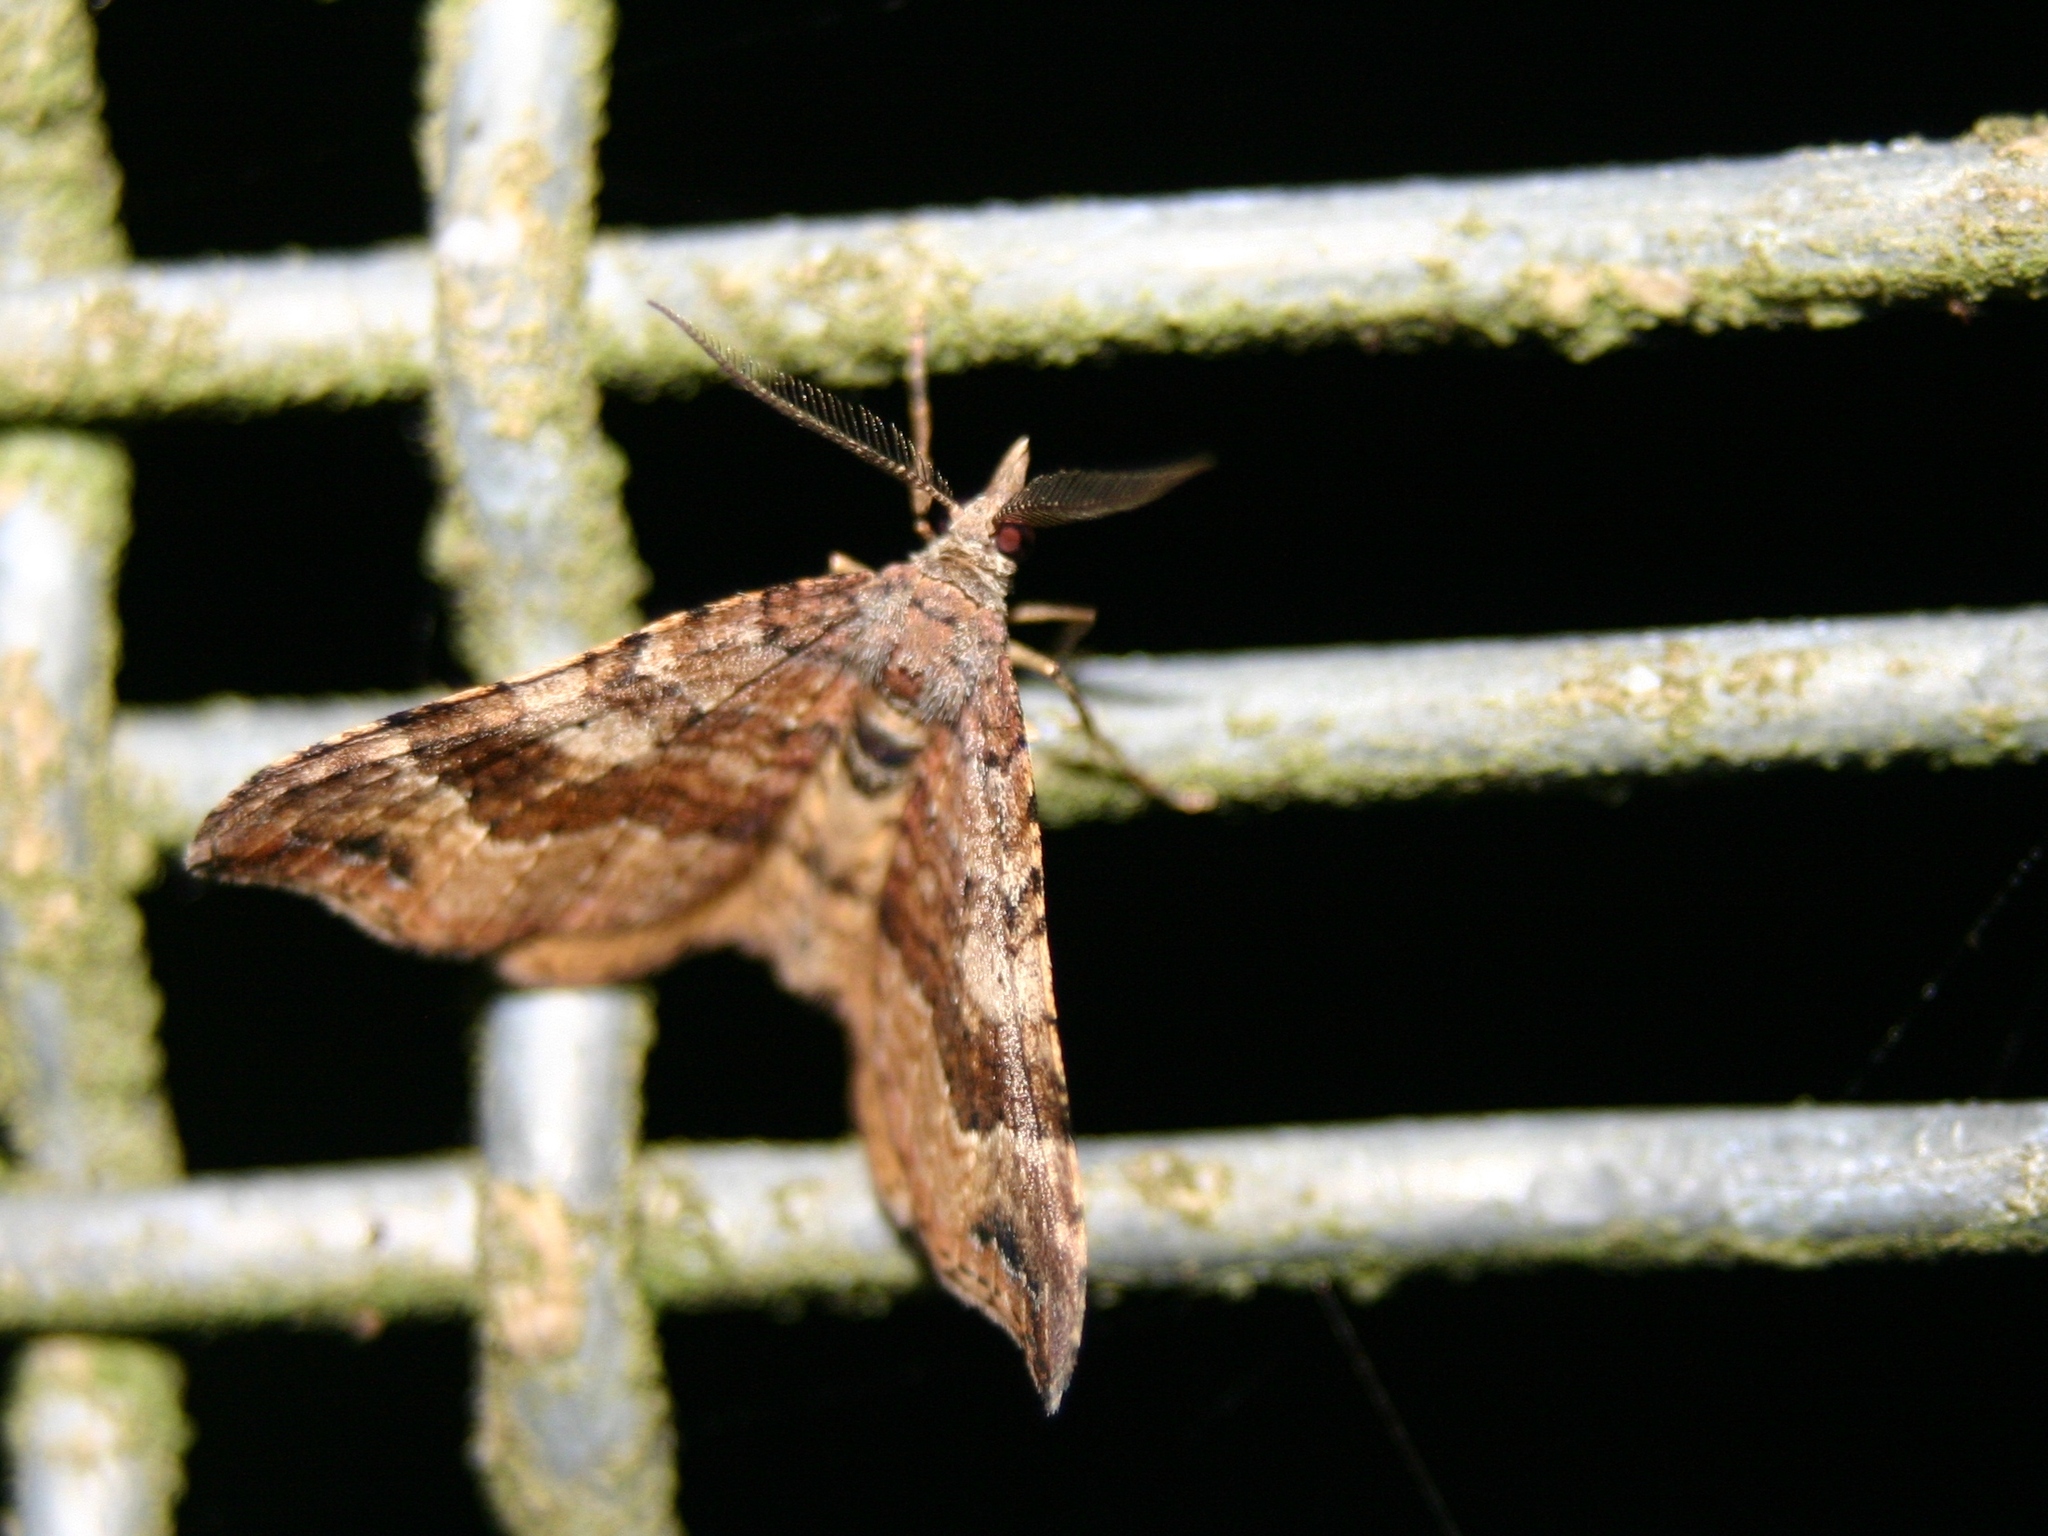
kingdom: Animalia
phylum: Arthropoda
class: Insecta
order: Lepidoptera
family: Geometridae
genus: Homodotis
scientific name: Homodotis megaspilata
